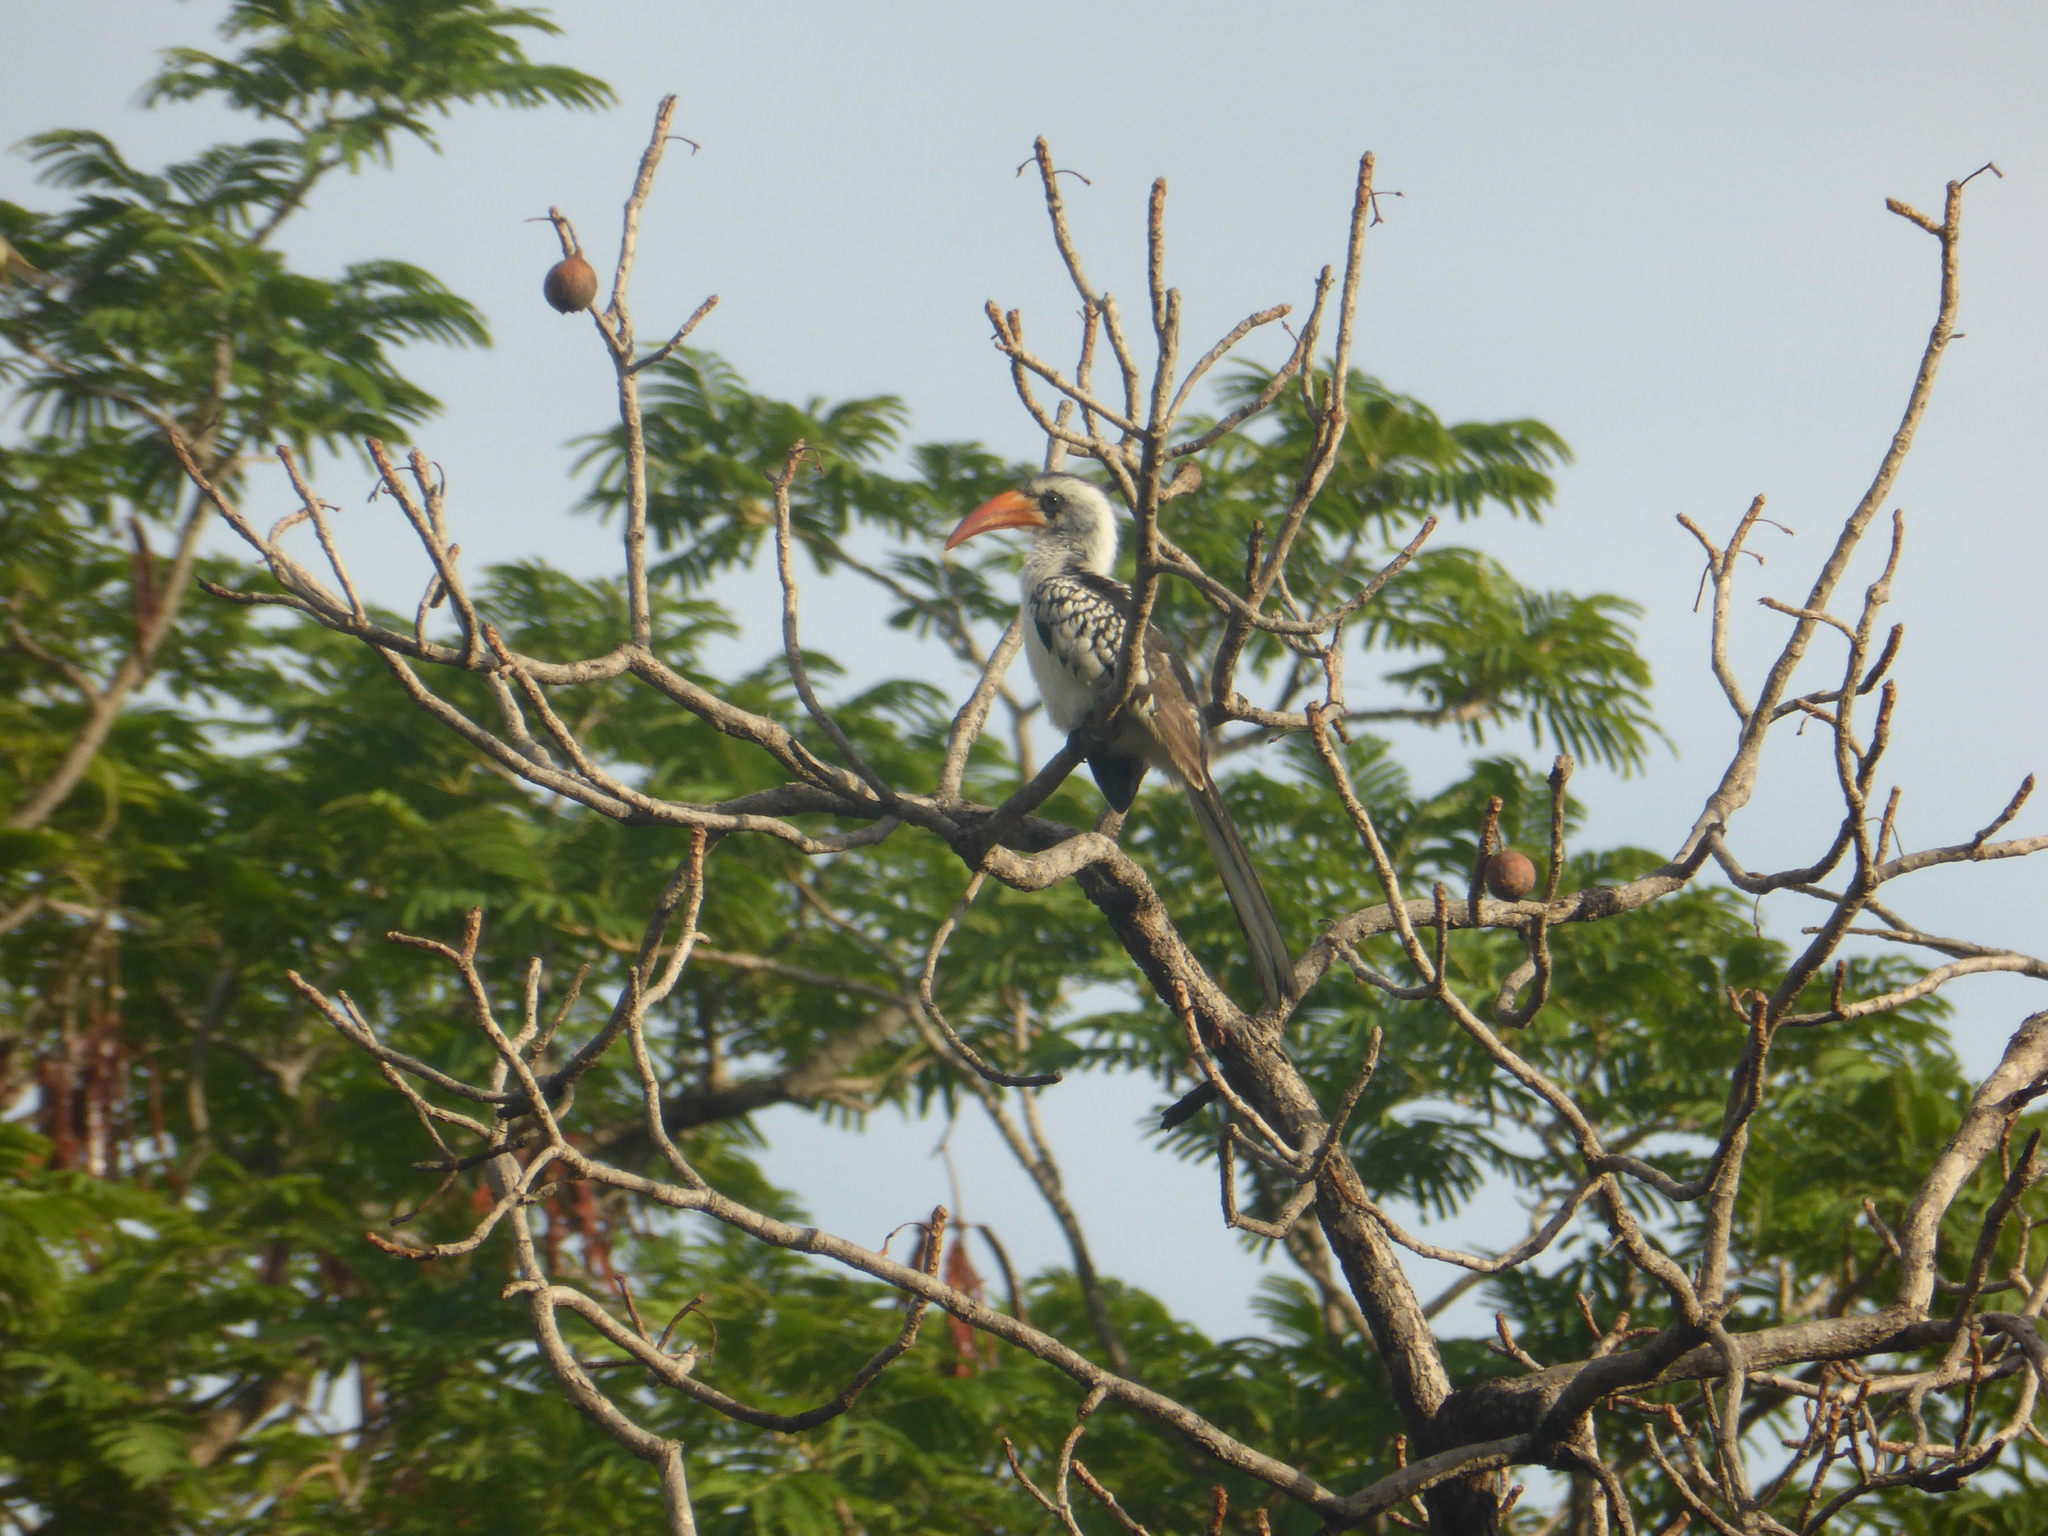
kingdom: Animalia
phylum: Chordata
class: Aves
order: Bucerotiformes
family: Bucerotidae
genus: Tockus
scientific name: Tockus kempi
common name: Western red-billed hornbill
